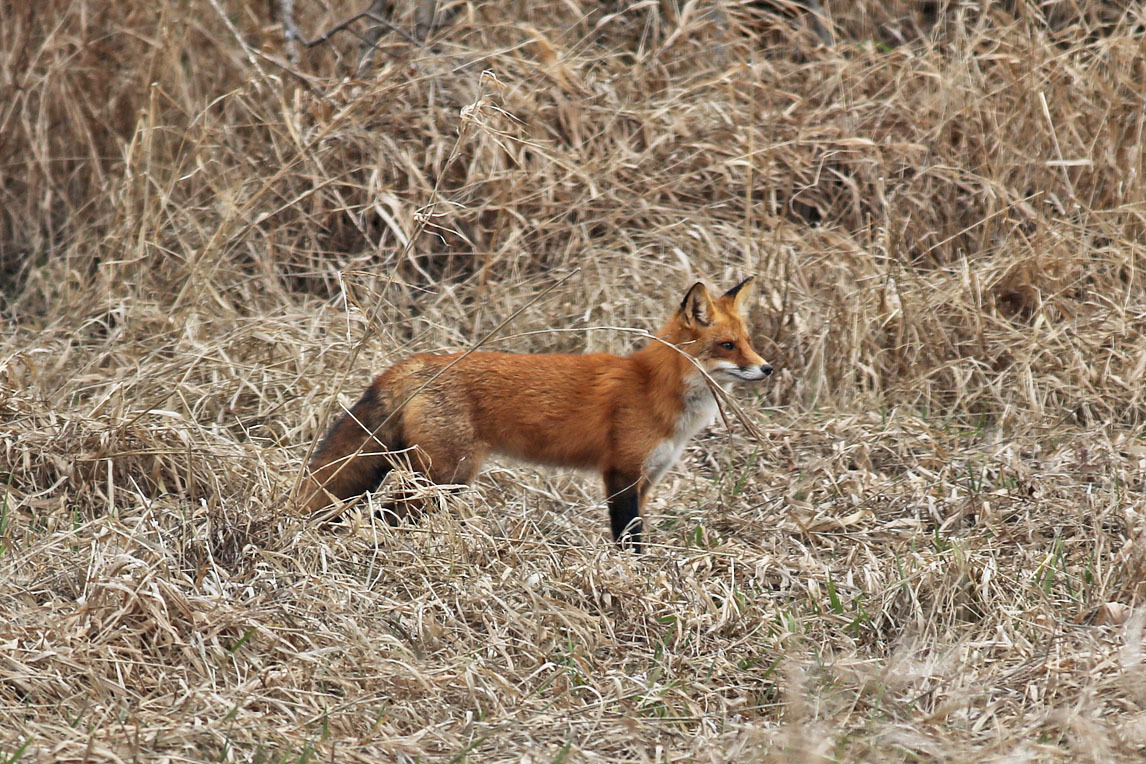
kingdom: Animalia
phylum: Chordata
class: Mammalia
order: Carnivora
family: Canidae
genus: Vulpes
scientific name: Vulpes vulpes
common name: Red fox
